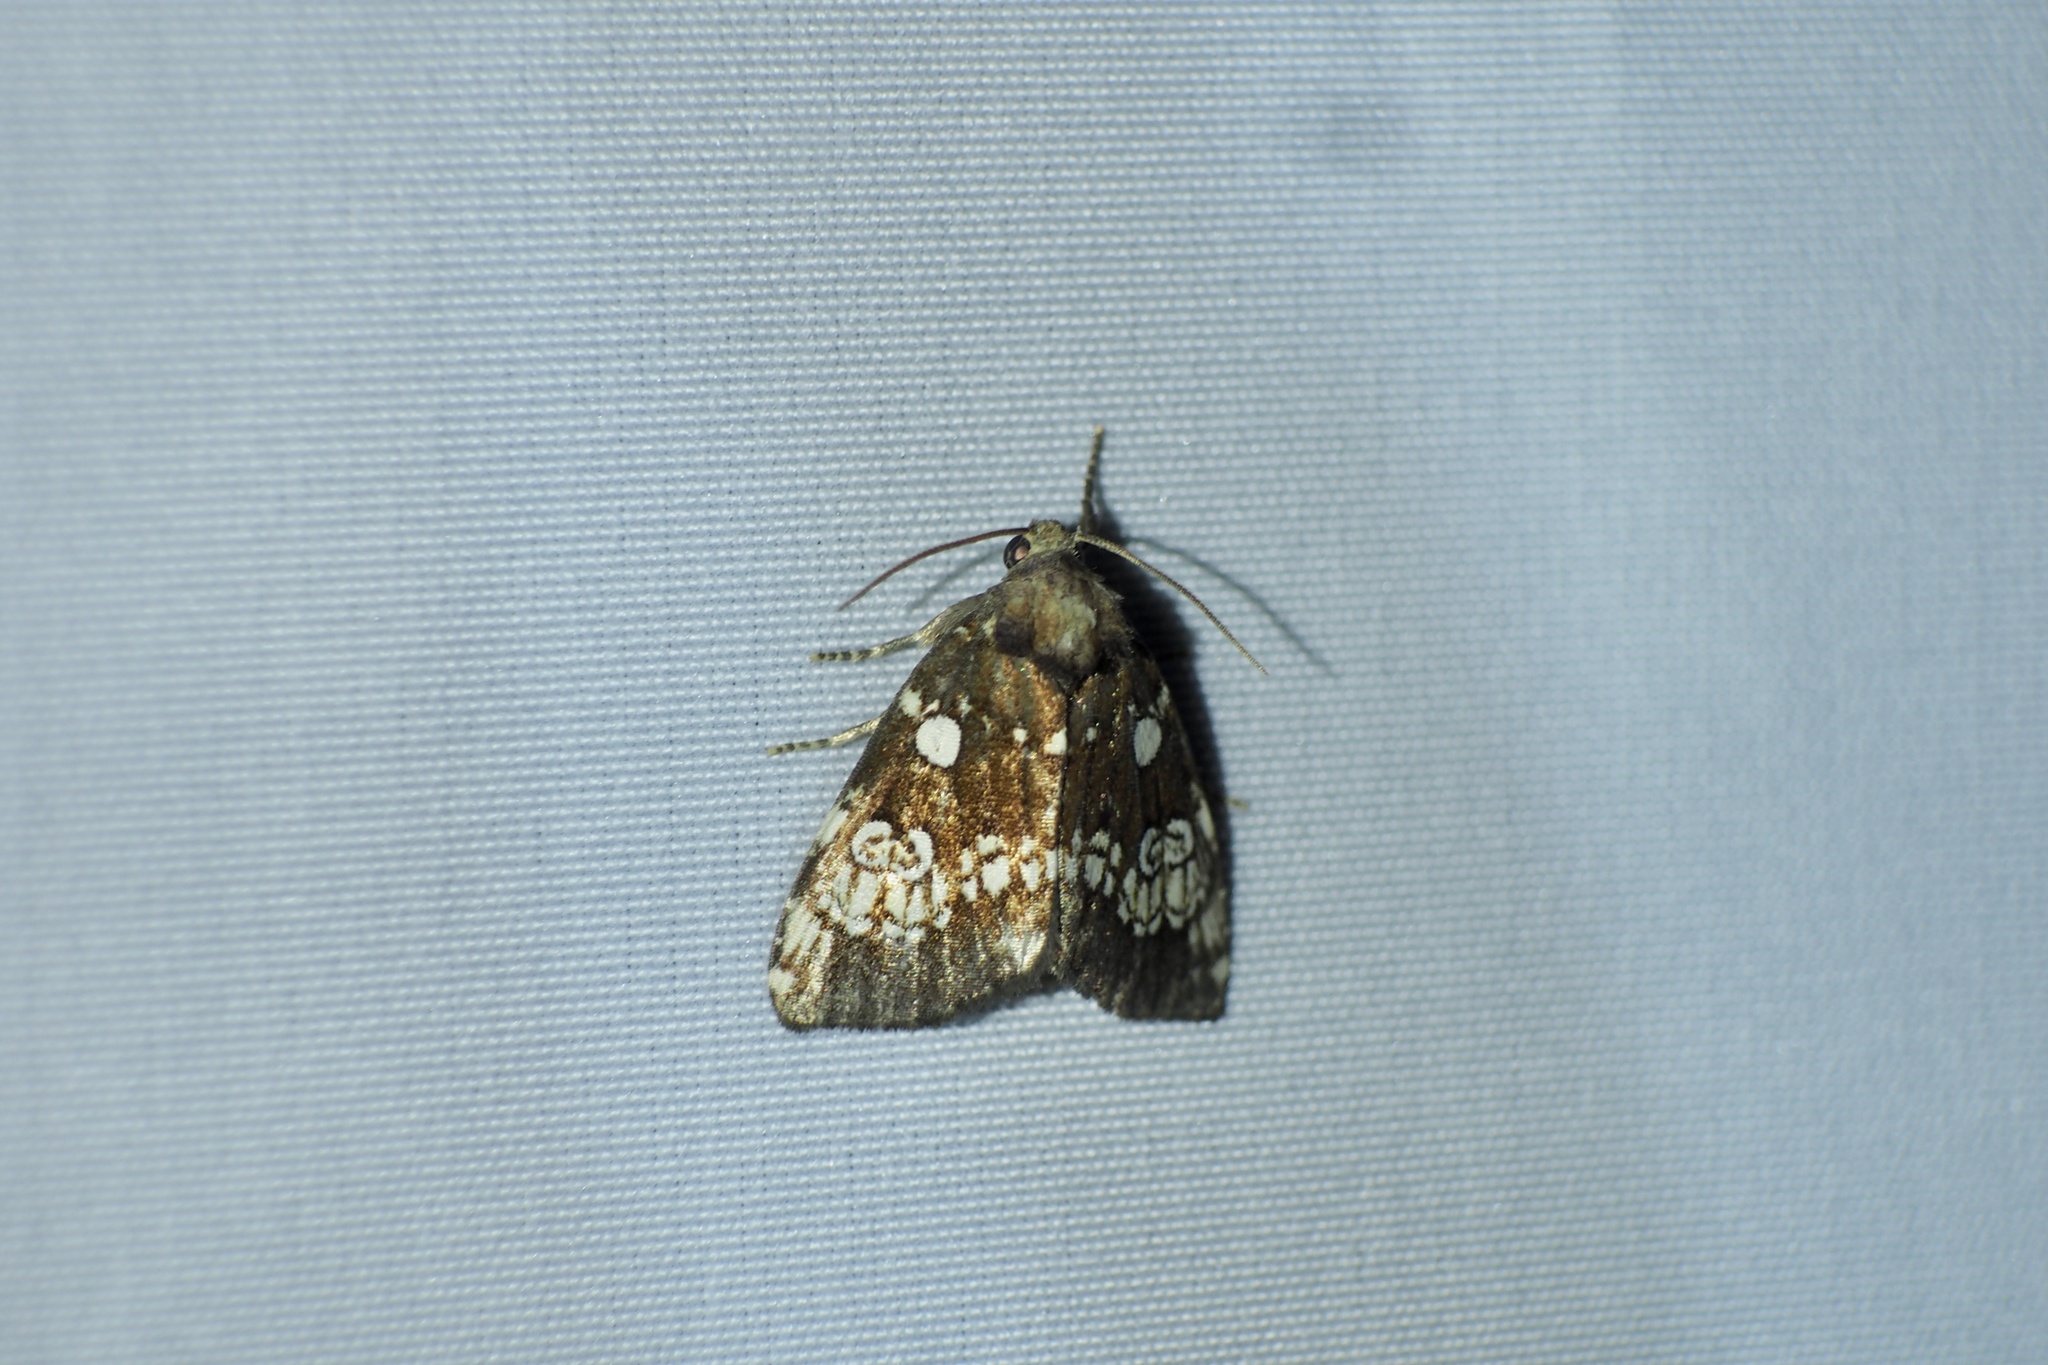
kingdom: Animalia
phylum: Arthropoda
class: Insecta
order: Lepidoptera
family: Noctuidae
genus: Dysmilichia
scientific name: Dysmilichia gemella
